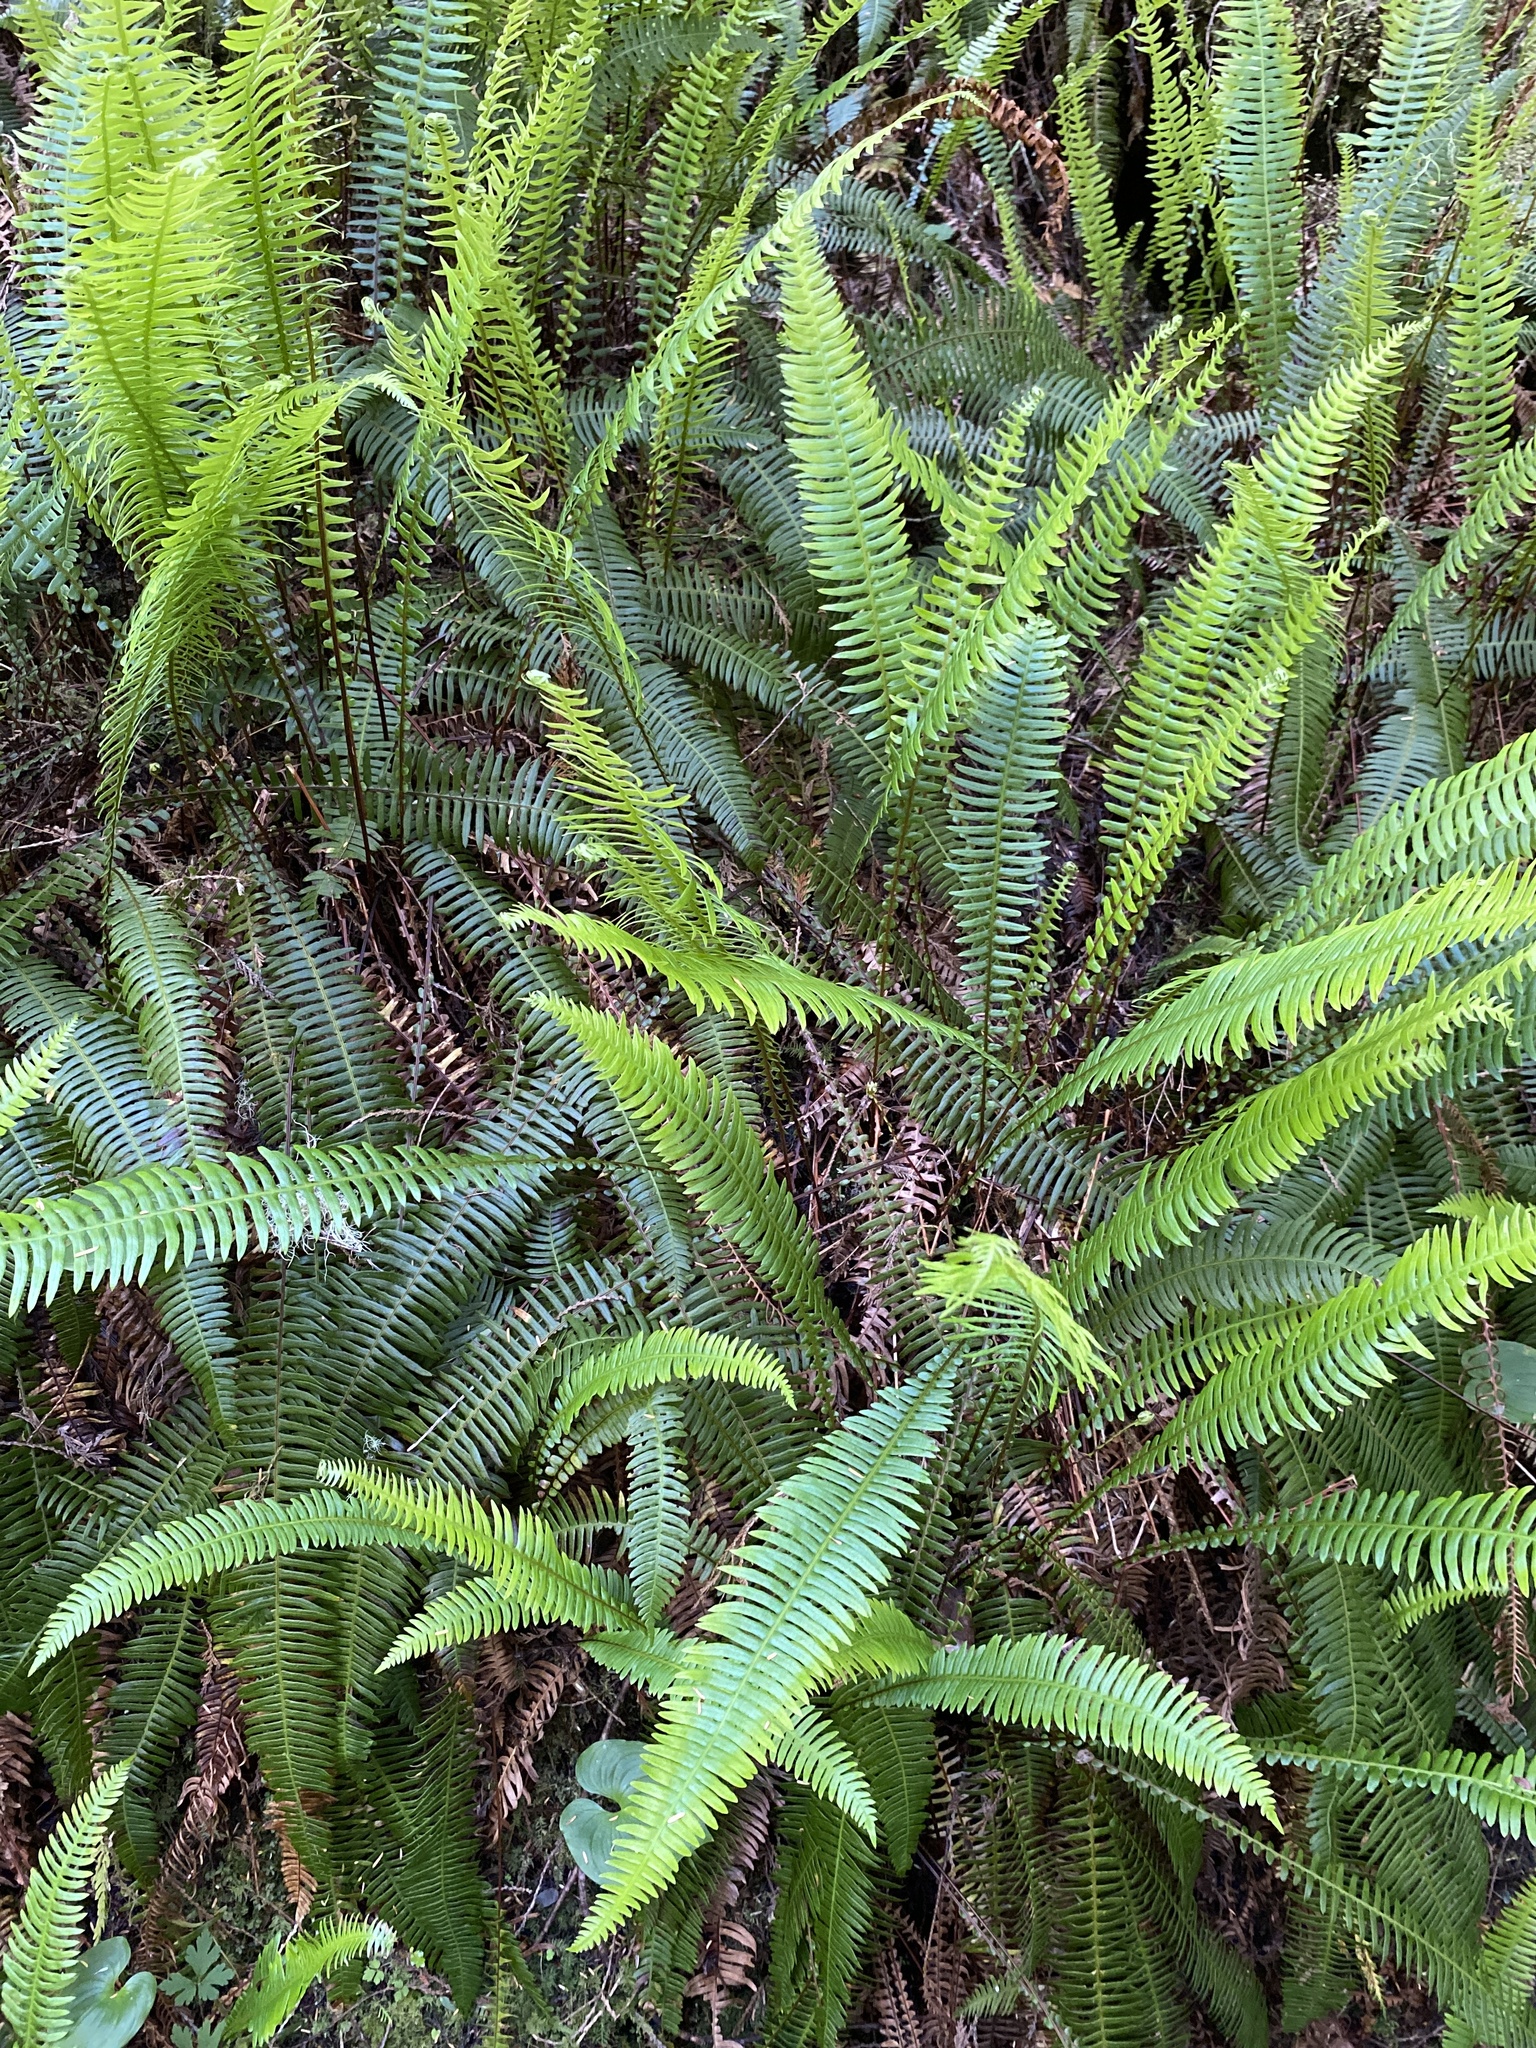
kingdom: Plantae
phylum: Tracheophyta
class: Polypodiopsida
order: Polypodiales
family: Blechnaceae
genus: Struthiopteris
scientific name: Struthiopteris spicant
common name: Deer fern
